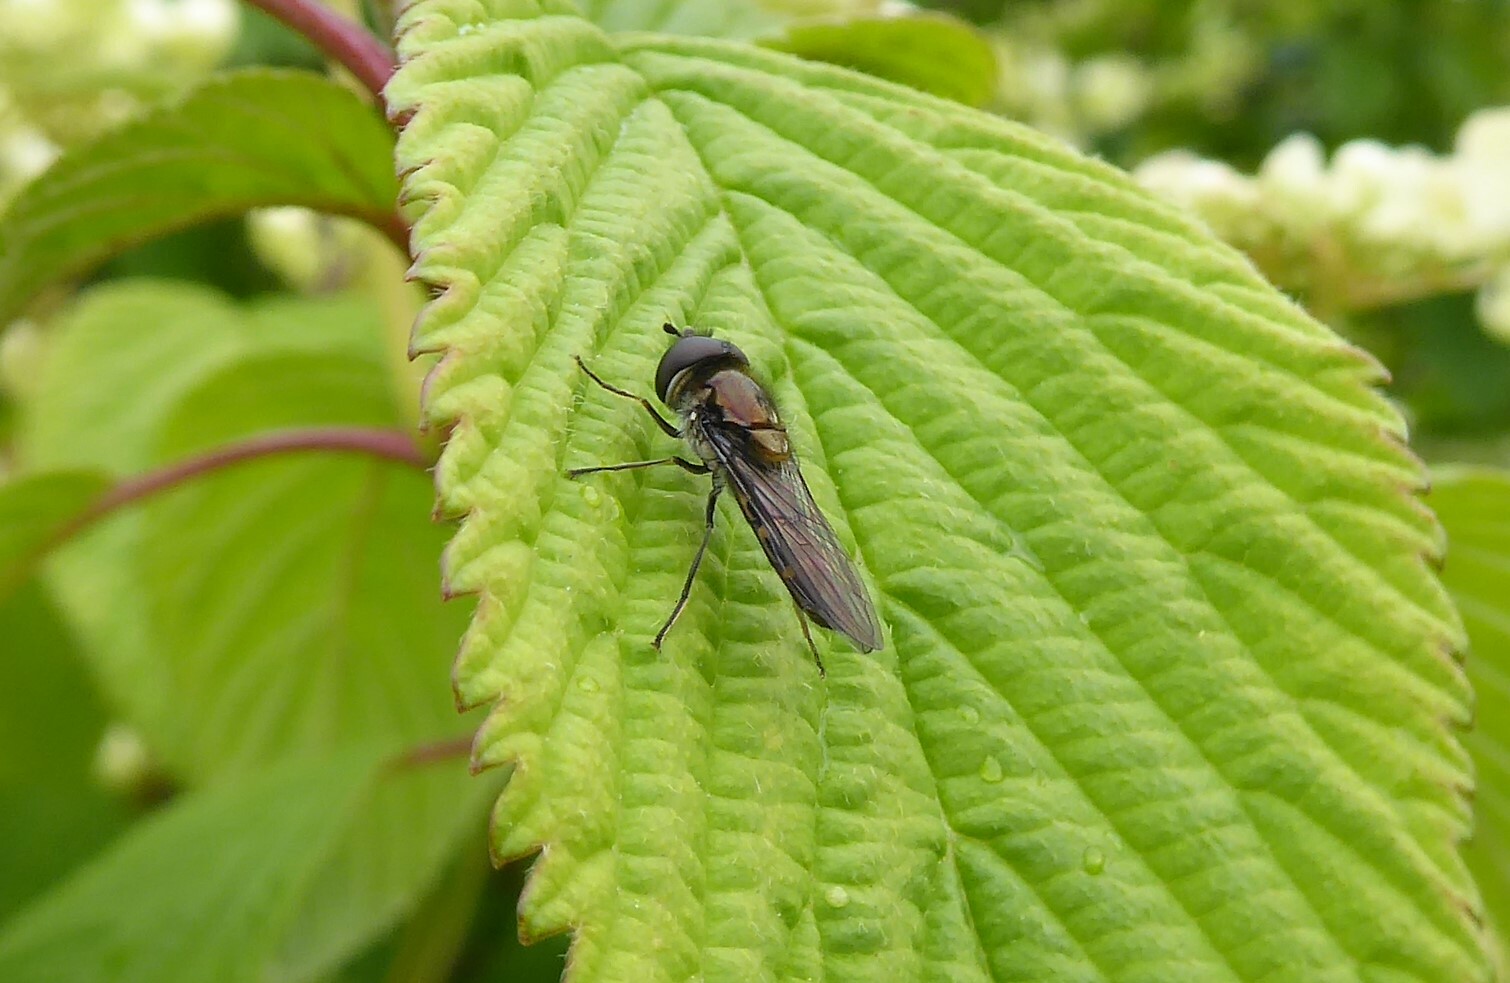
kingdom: Animalia
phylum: Arthropoda
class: Insecta
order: Diptera
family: Syrphidae
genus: Melangyna
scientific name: Melangyna novaezelandiae
